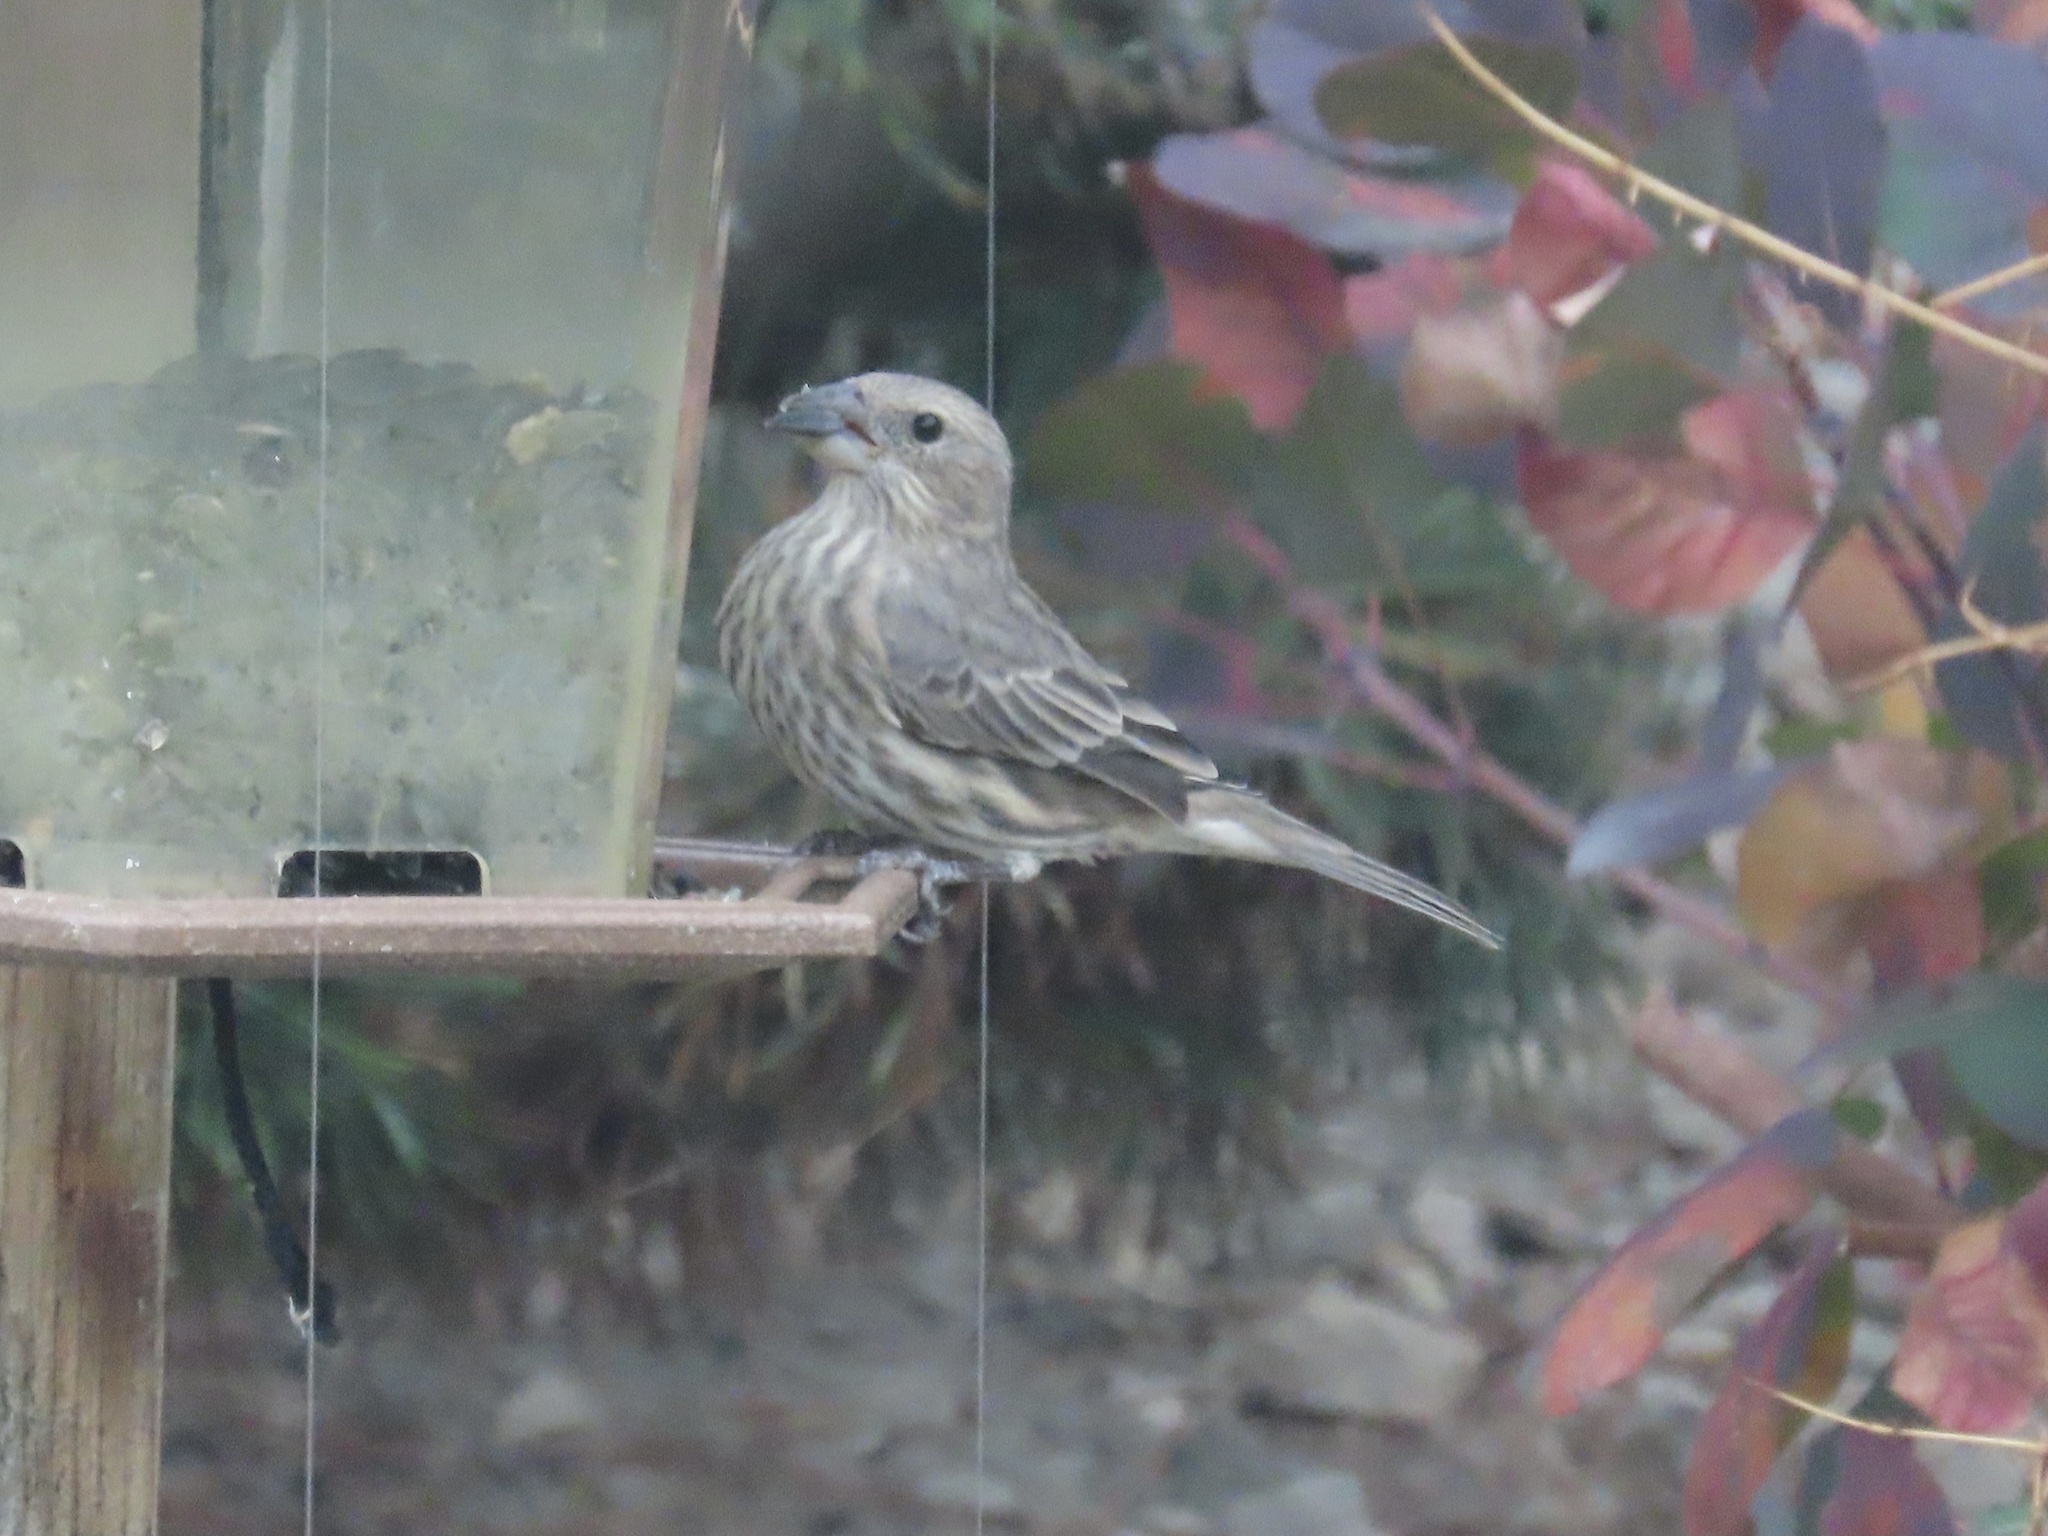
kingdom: Animalia
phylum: Chordata
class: Aves
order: Passeriformes
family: Fringillidae
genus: Haemorhous
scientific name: Haemorhous mexicanus
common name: House finch
